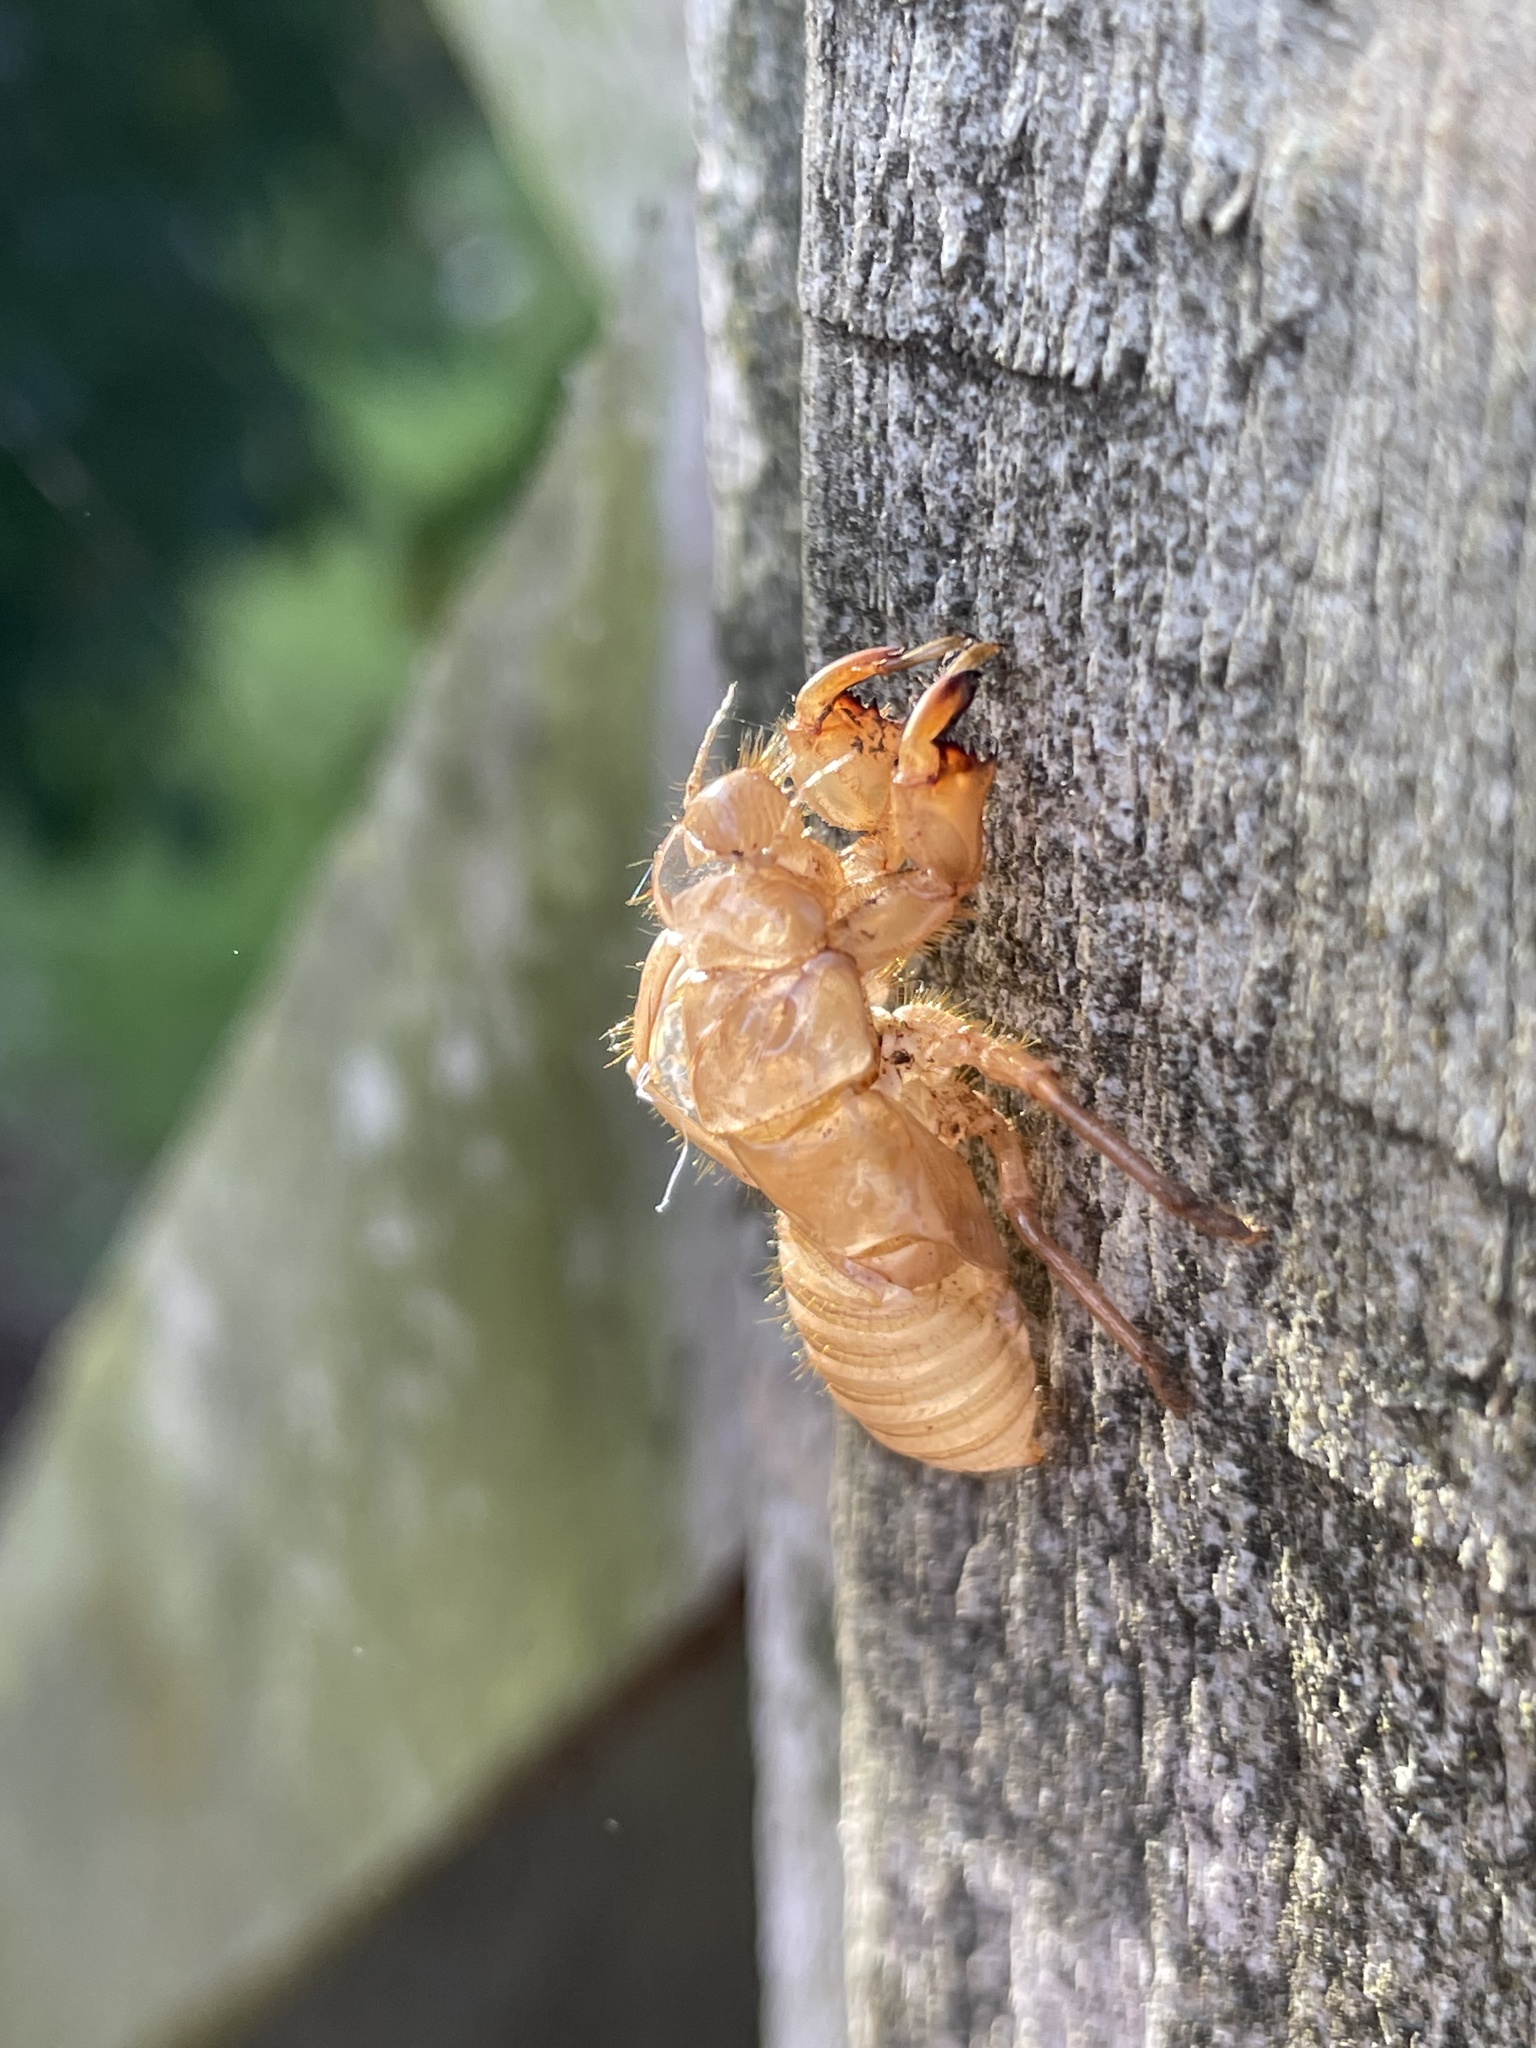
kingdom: Animalia
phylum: Arthropoda
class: Insecta
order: Hemiptera
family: Cicadidae
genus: Amphipsalta
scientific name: Amphipsalta cingulata
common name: Clapping cicada
